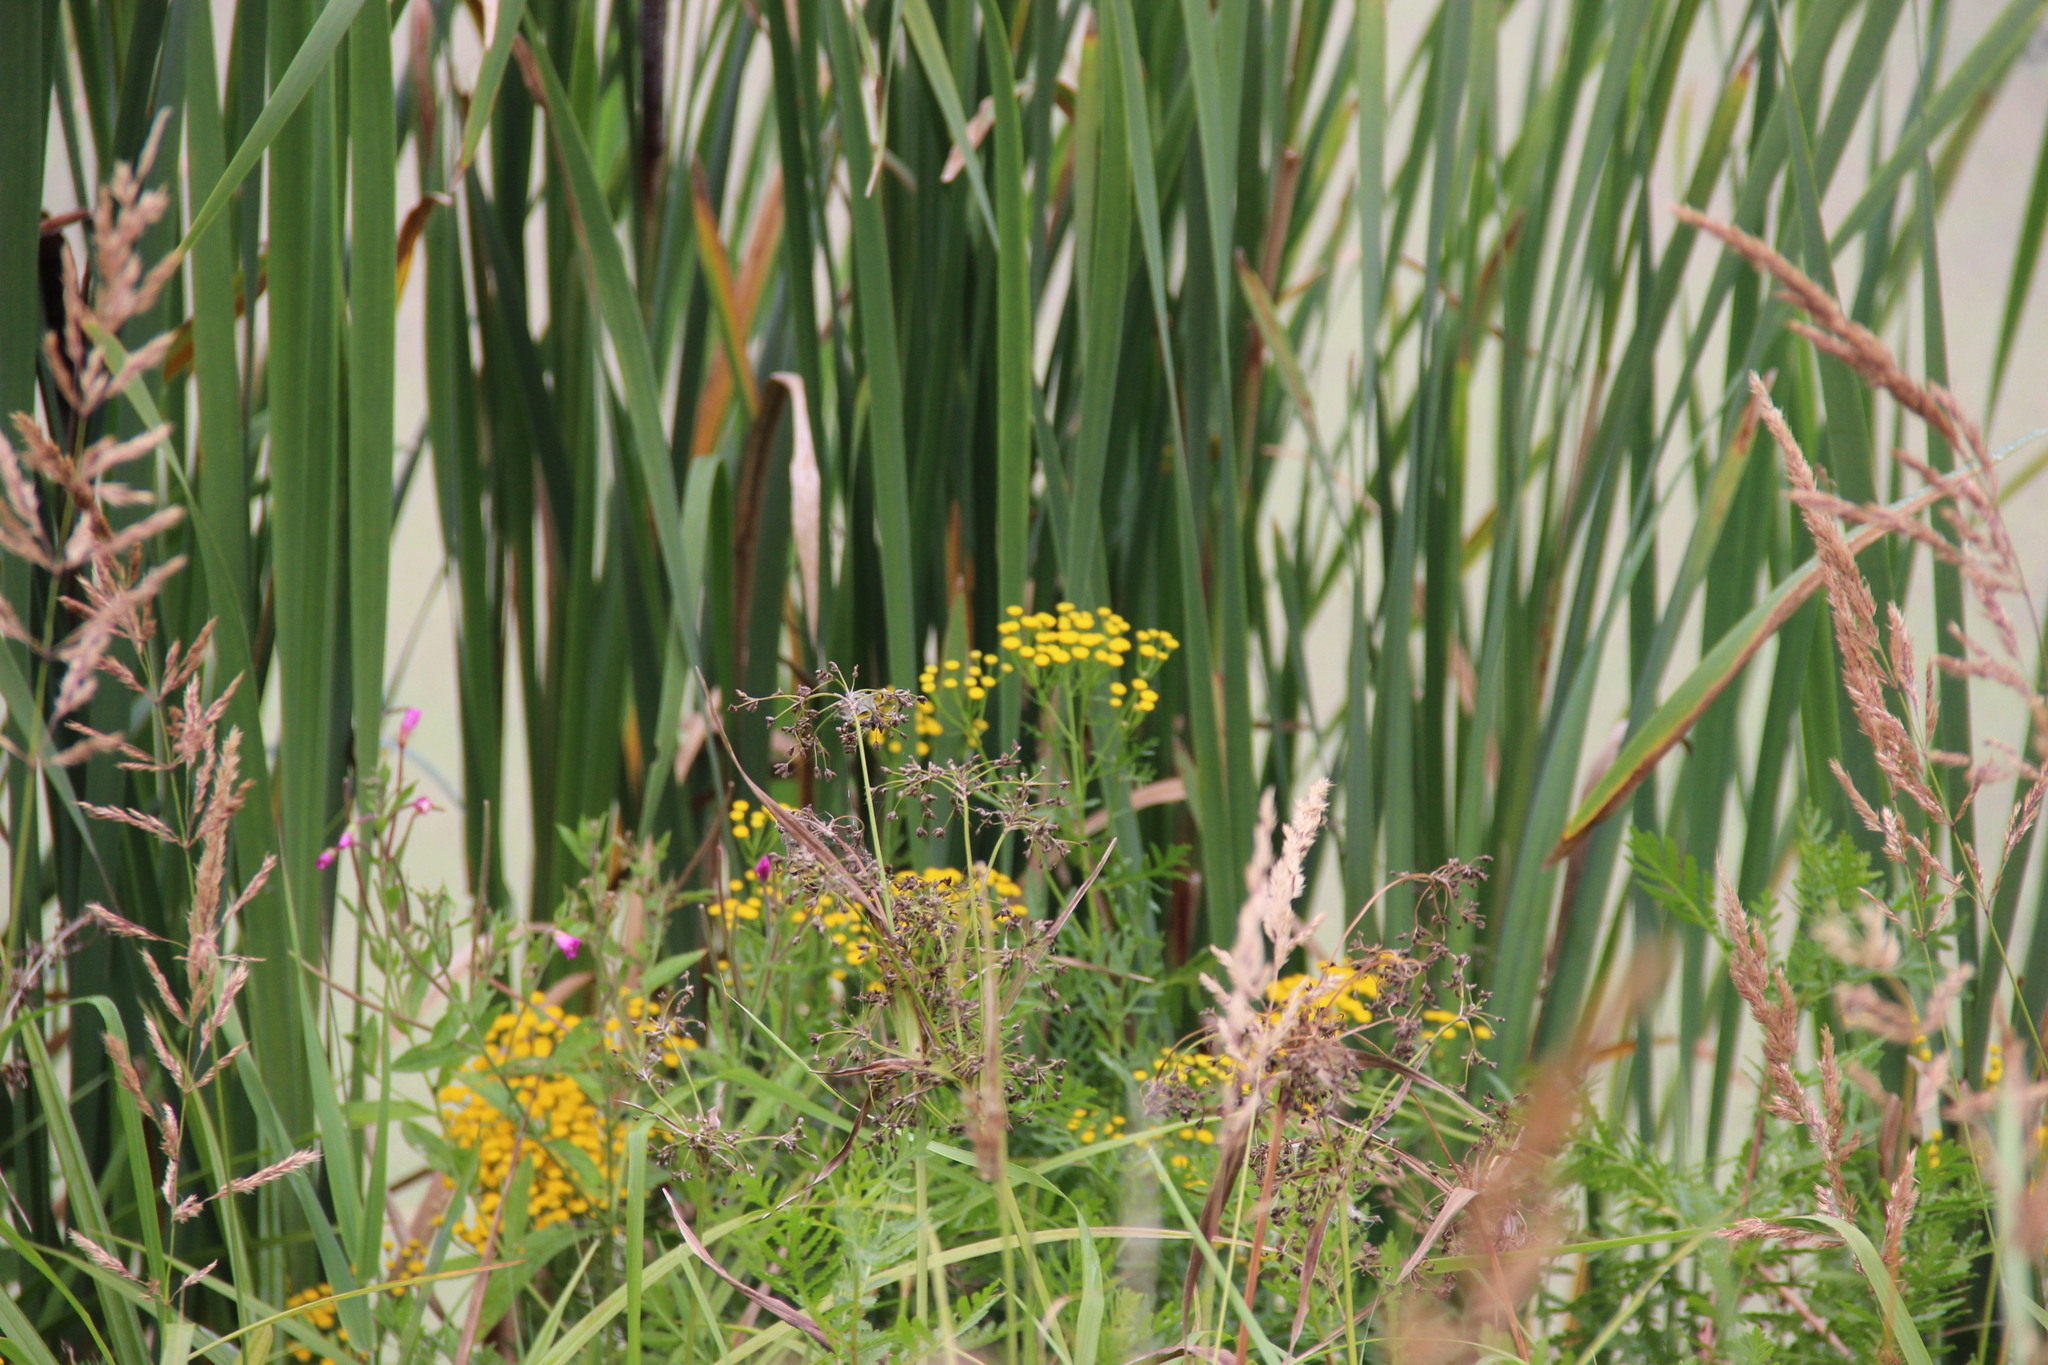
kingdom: Plantae
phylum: Tracheophyta
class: Magnoliopsida
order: Asterales
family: Asteraceae
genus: Tanacetum
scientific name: Tanacetum vulgare
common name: Common tansy
